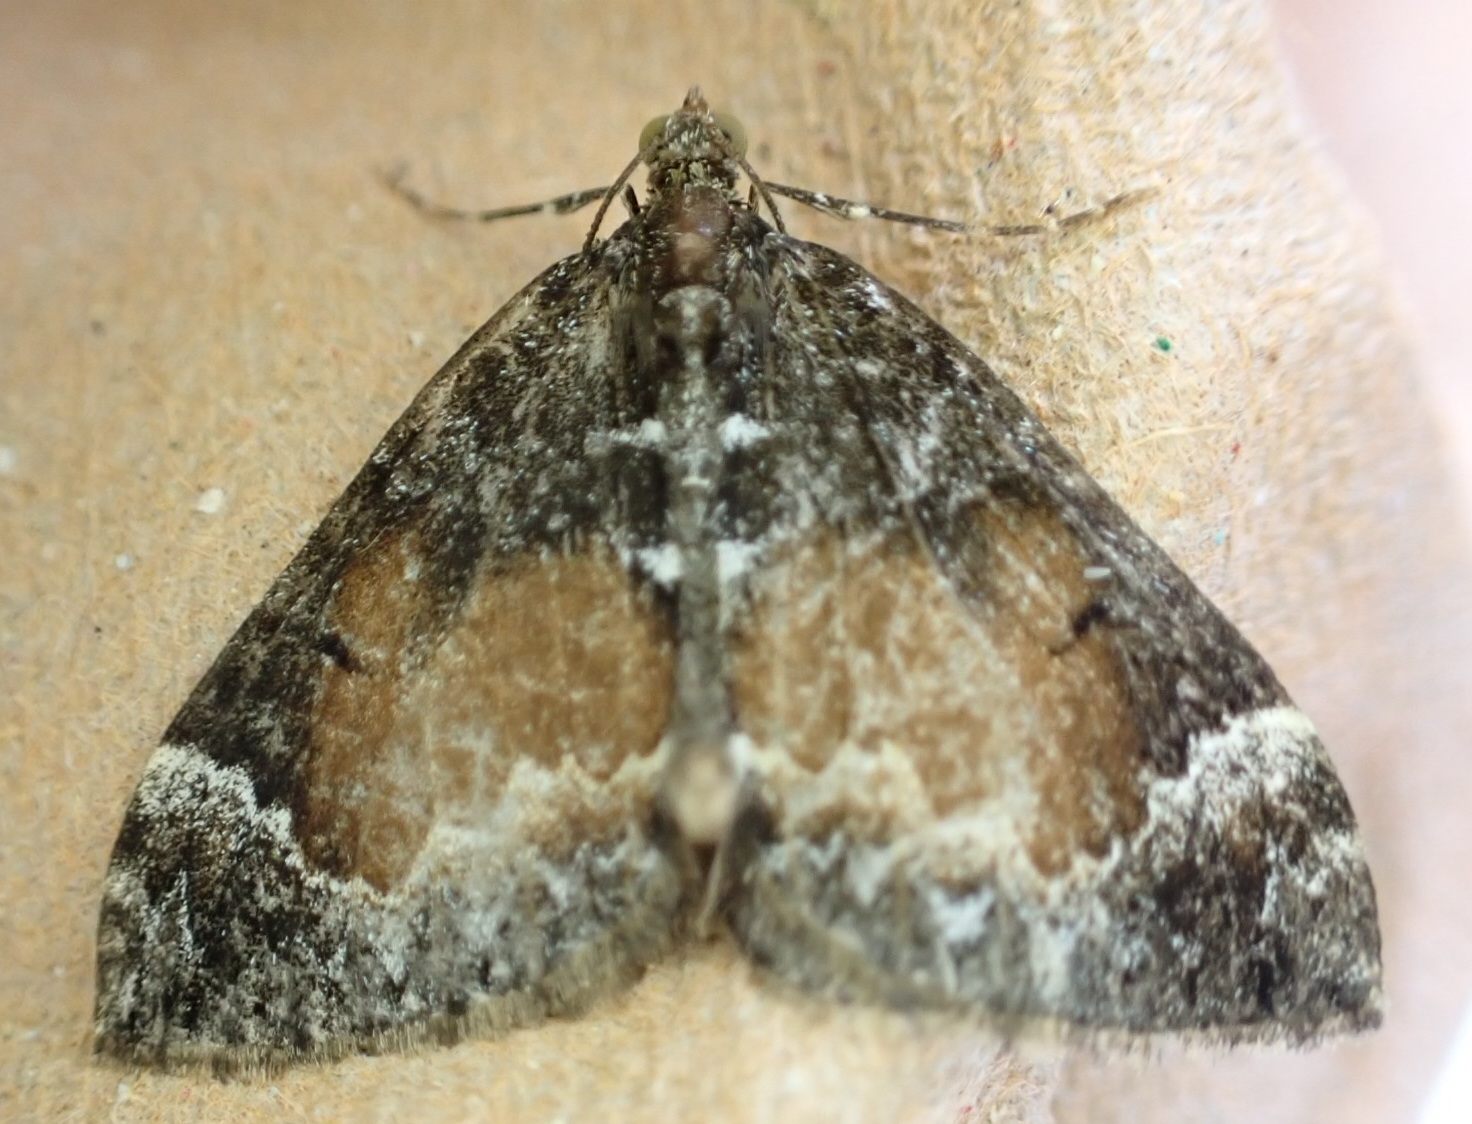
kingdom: Animalia
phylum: Arthropoda
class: Insecta
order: Lepidoptera
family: Geometridae
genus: Dysstroma
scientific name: Dysstroma truncata
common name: Common marbled carpet
